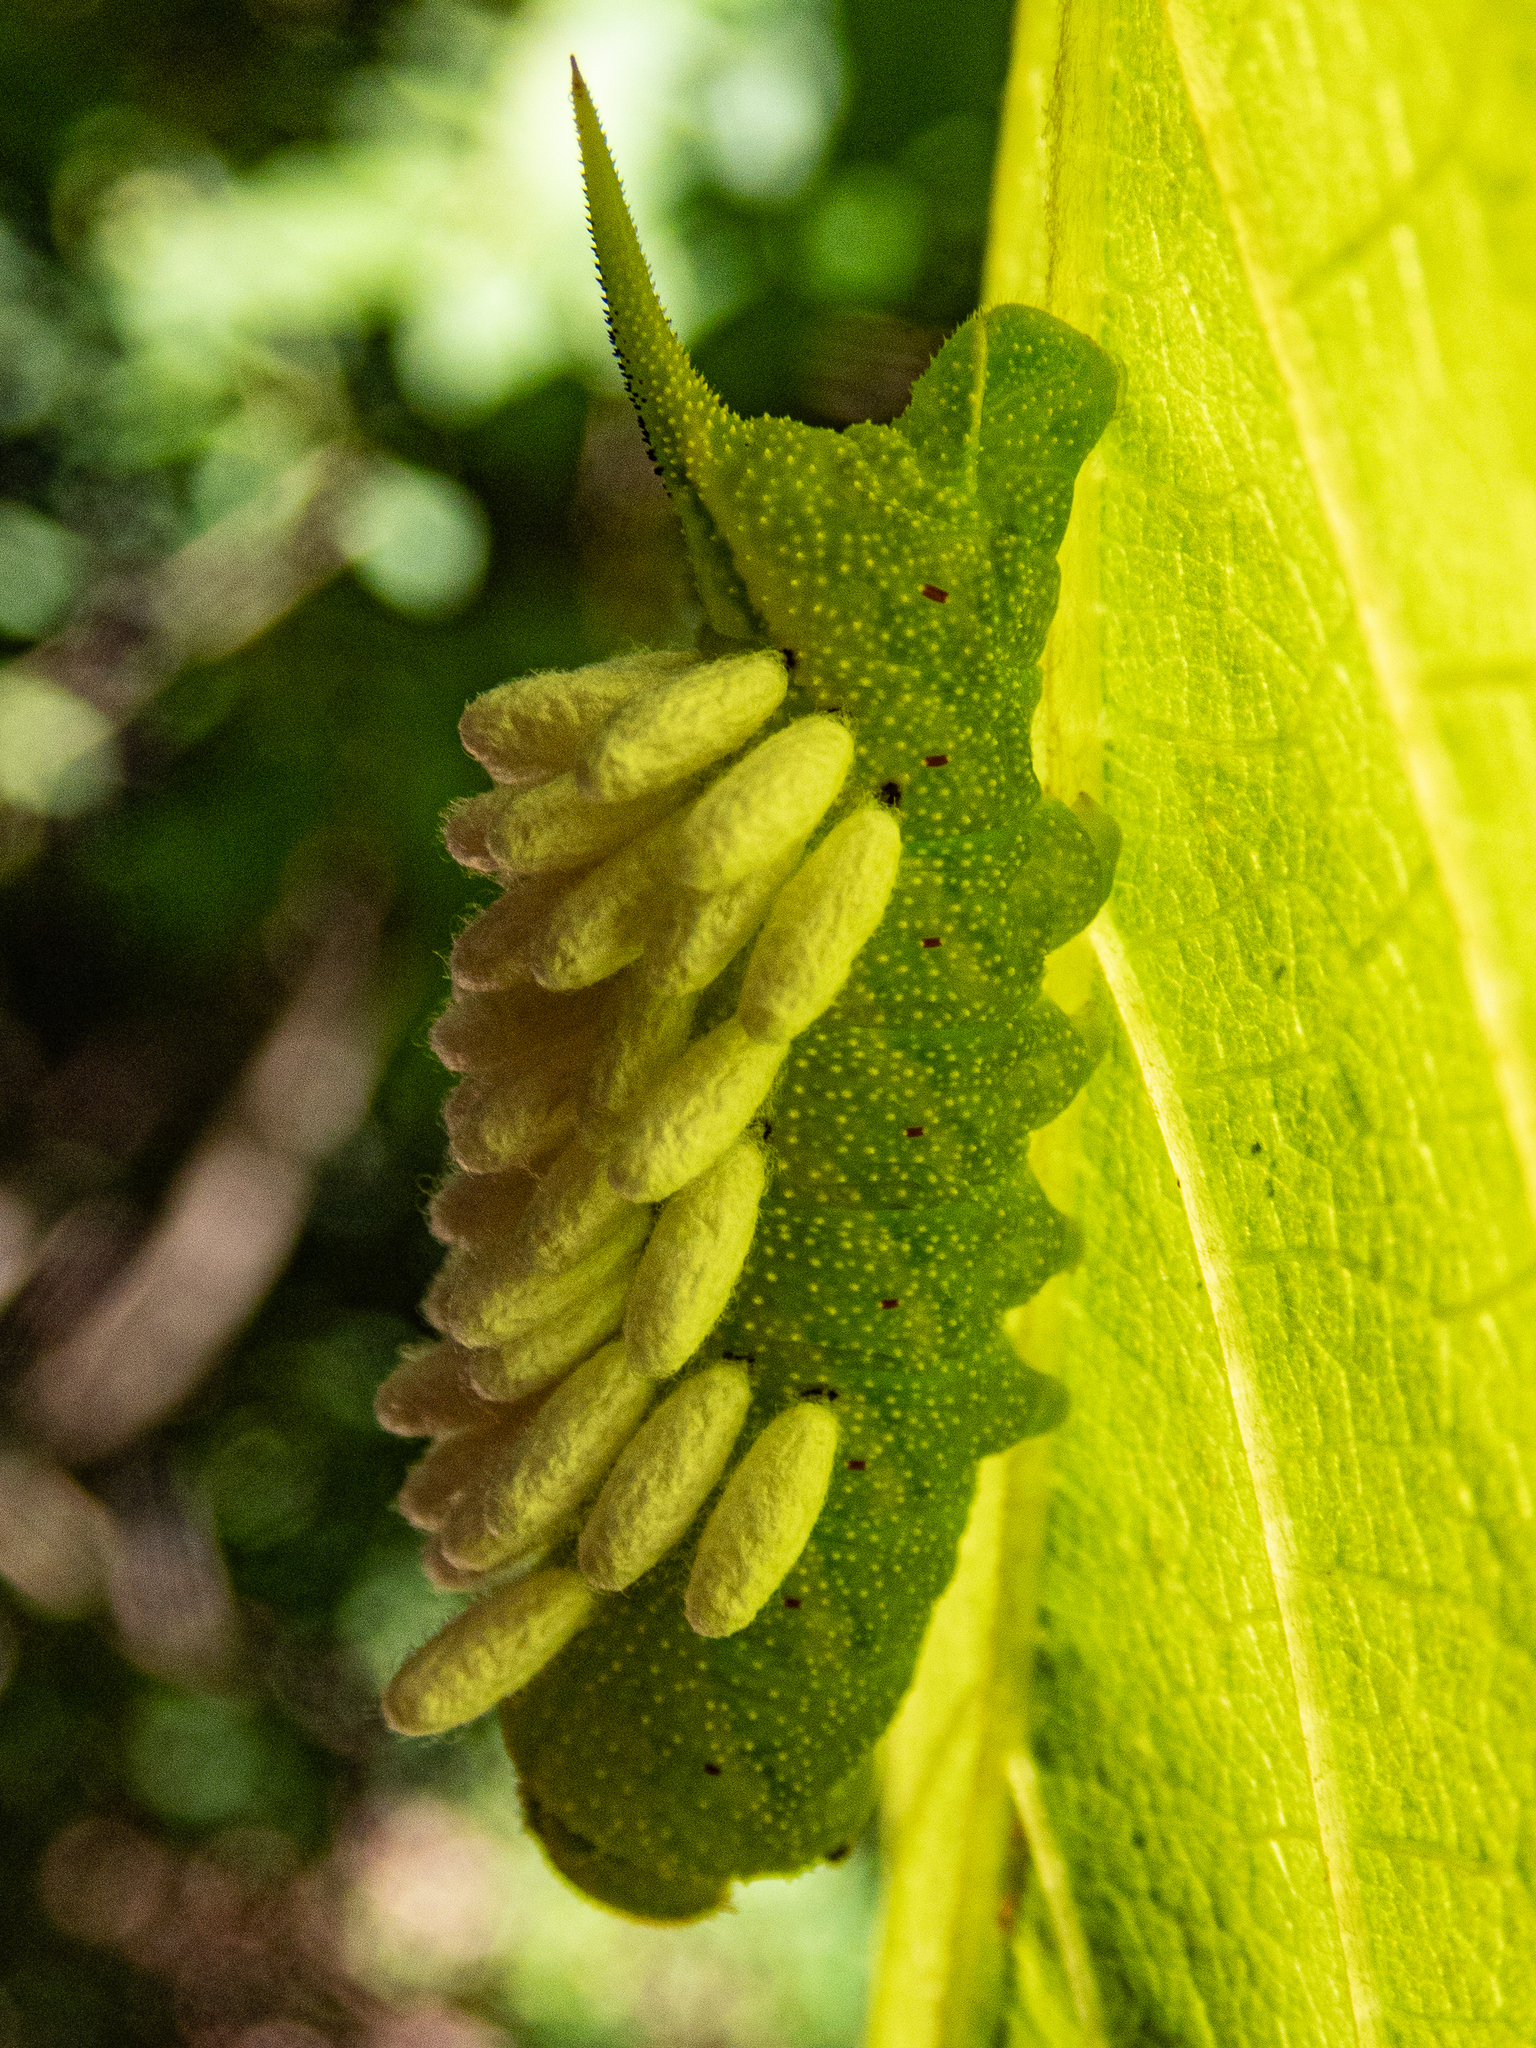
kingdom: Animalia
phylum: Arthropoda
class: Insecta
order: Hymenoptera
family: Braconidae
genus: Cotesia
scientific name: Cotesia congregata
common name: Hornworm parasitoid wasp
